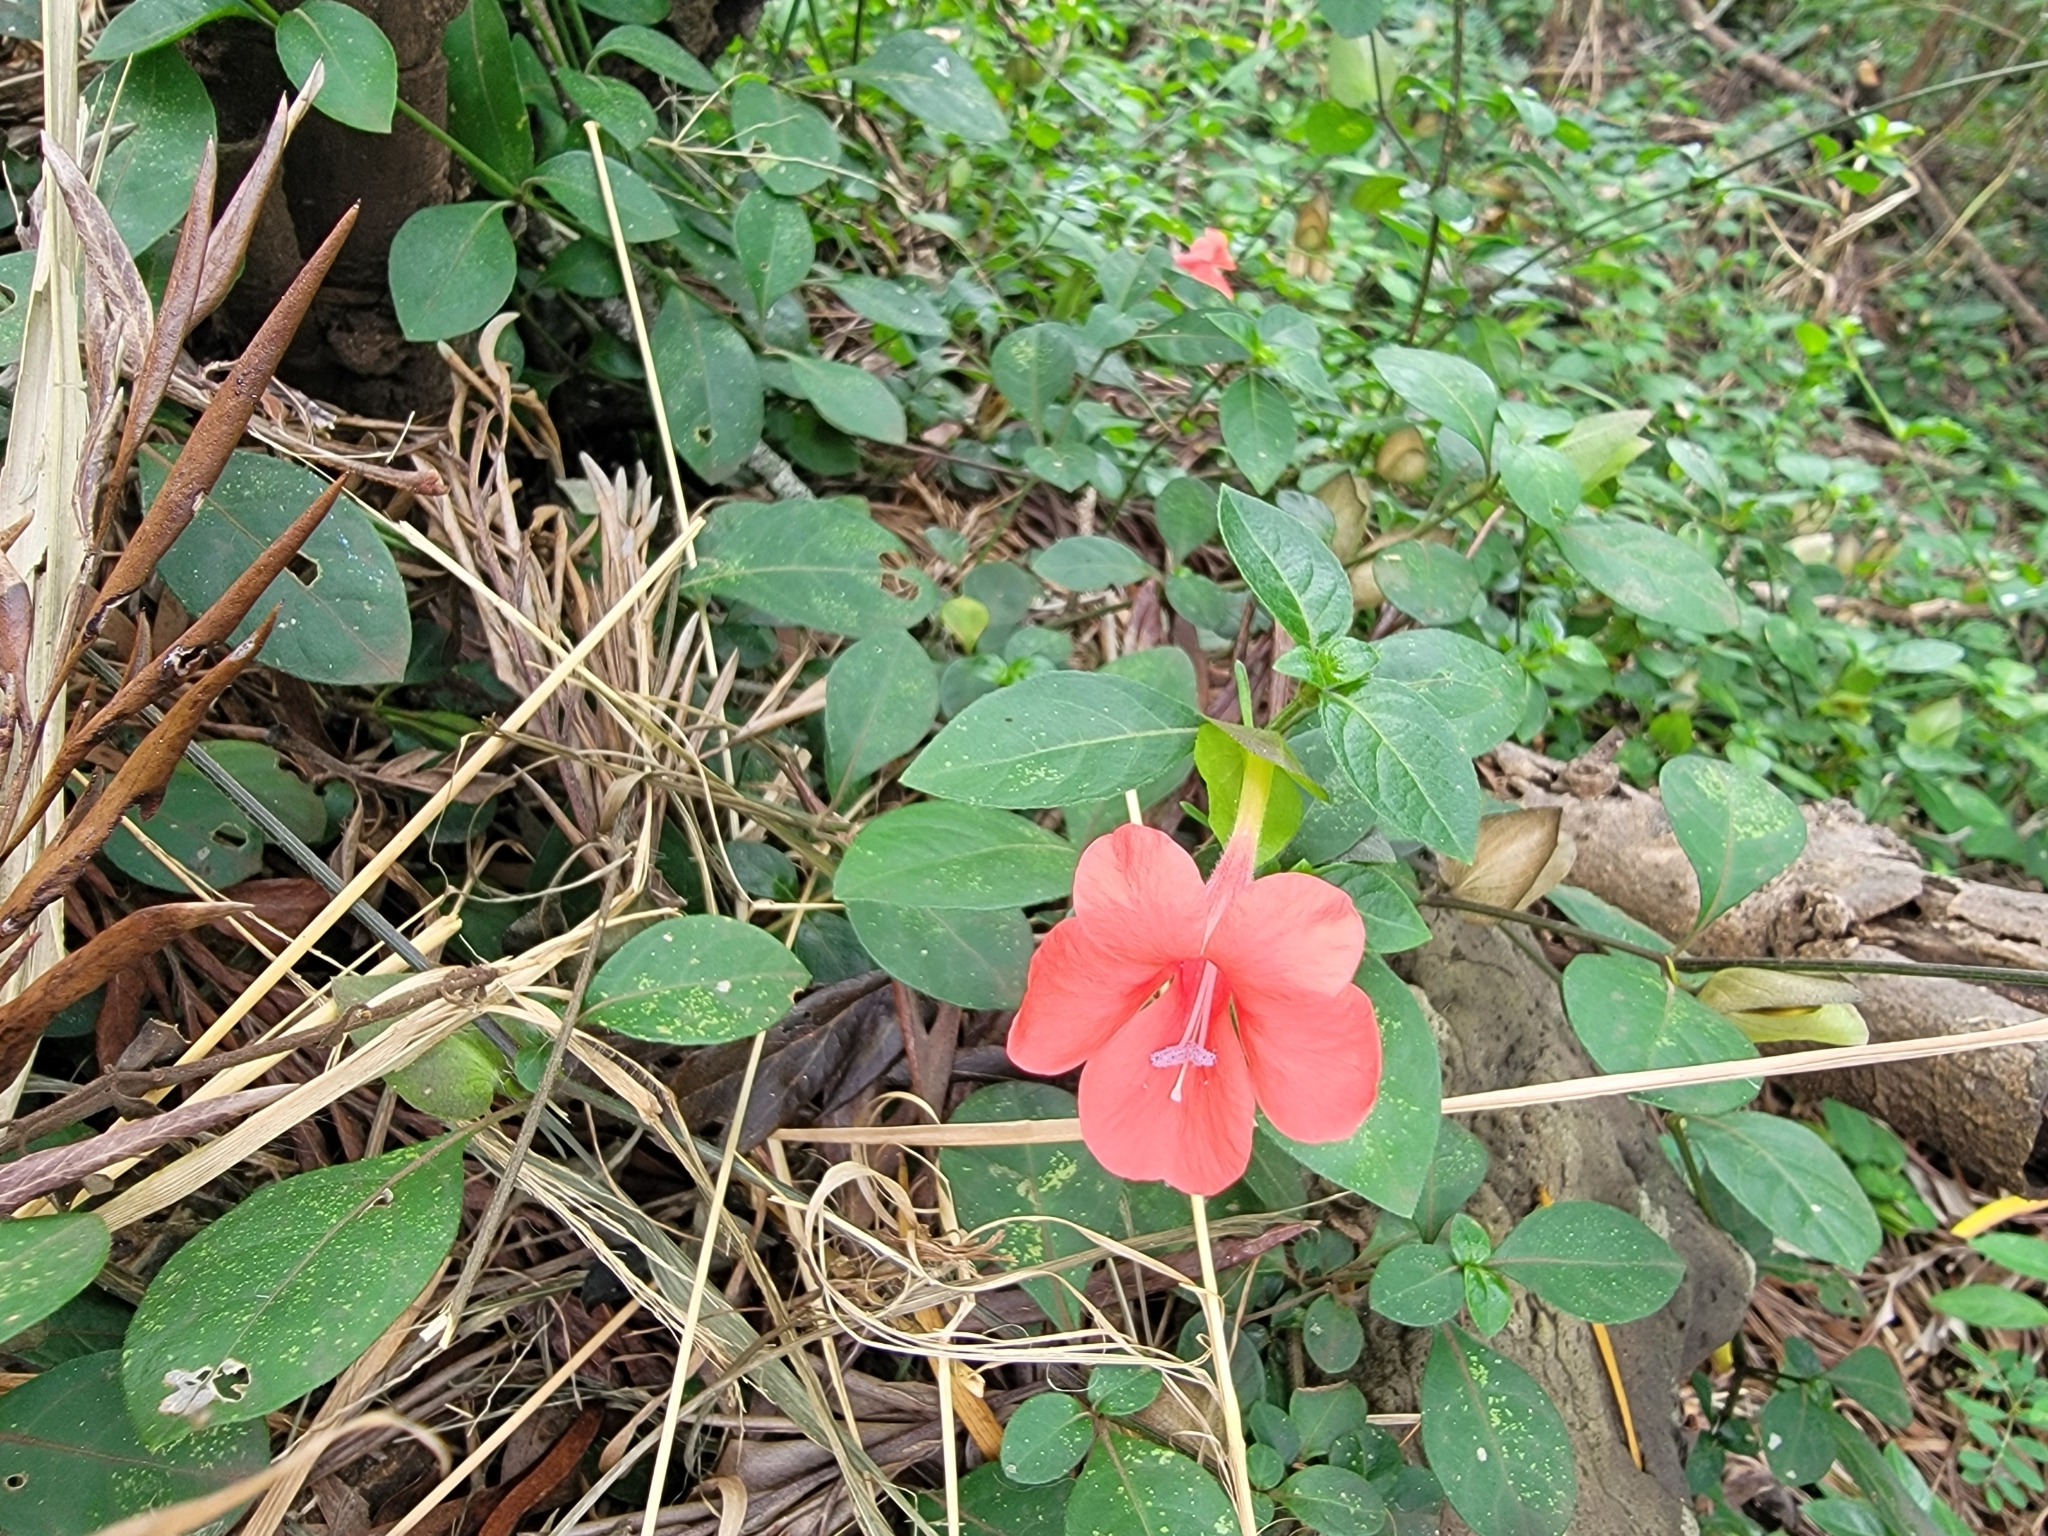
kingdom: Plantae
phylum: Tracheophyta
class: Magnoliopsida
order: Lamiales
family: Acanthaceae
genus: Barleria
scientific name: Barleria repens
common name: Pink-ruellia
